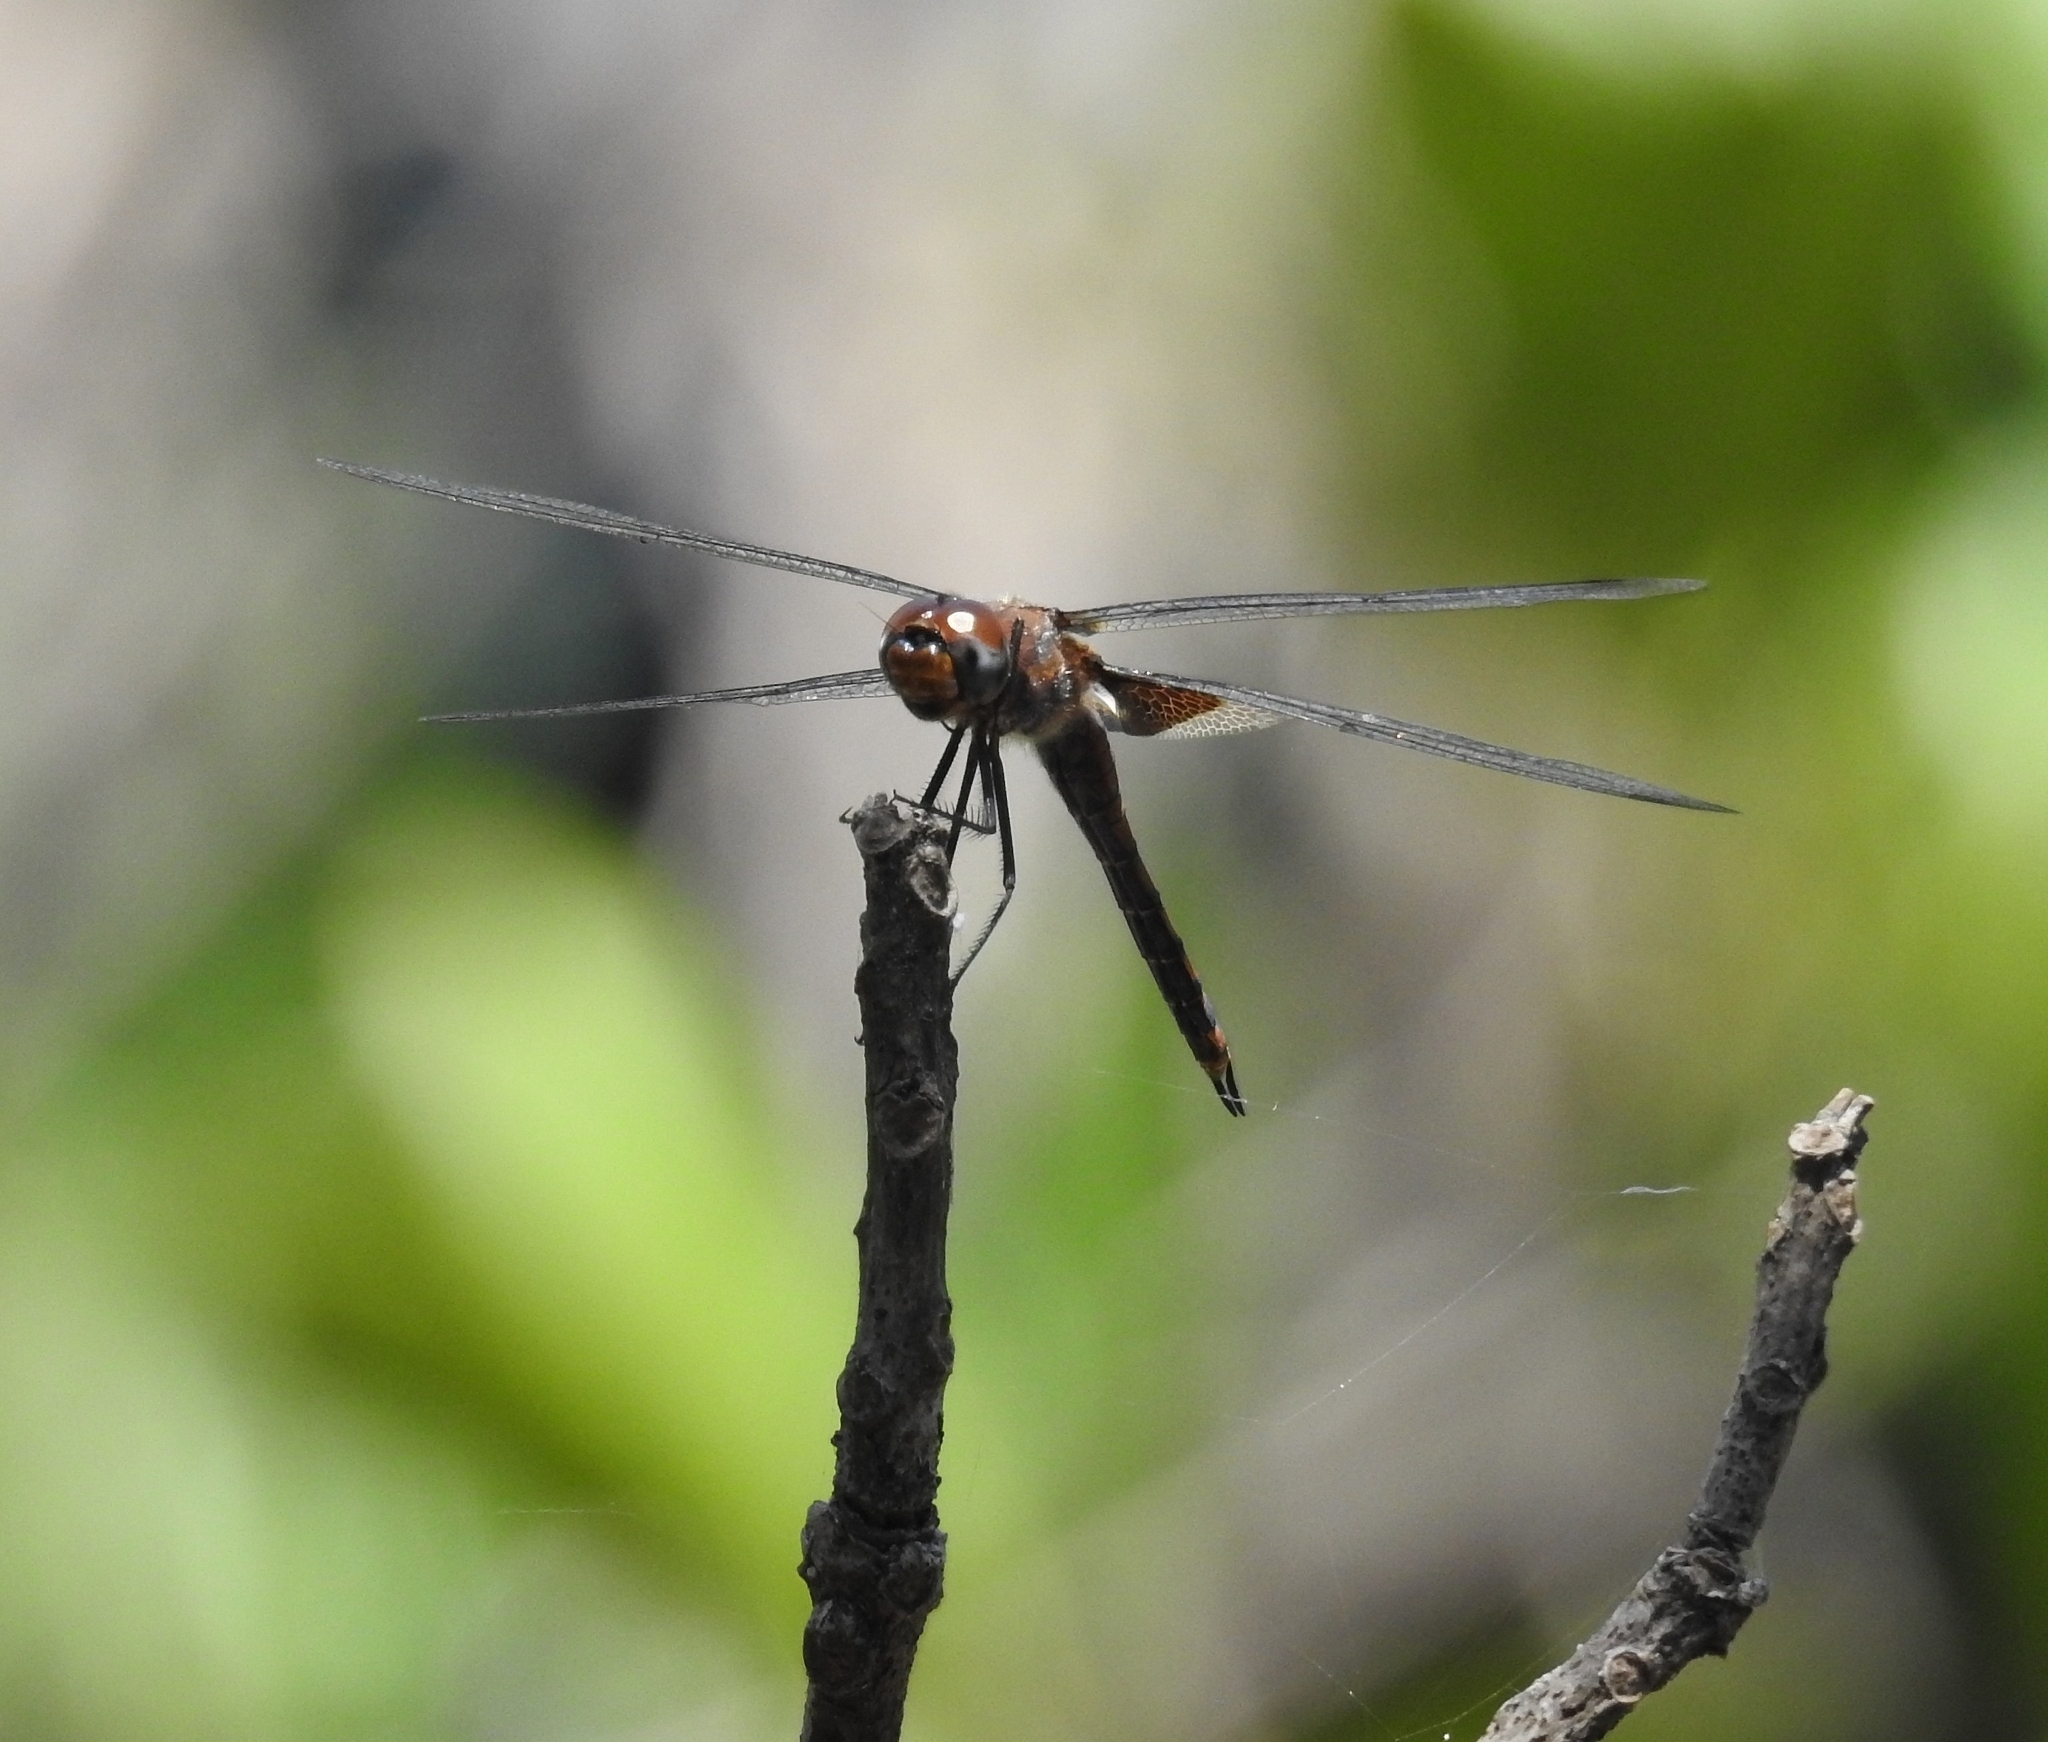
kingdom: Animalia
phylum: Arthropoda
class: Insecta
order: Odonata
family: Libellulidae
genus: Tramea
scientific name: Tramea limbata
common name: Ferruginous glider
